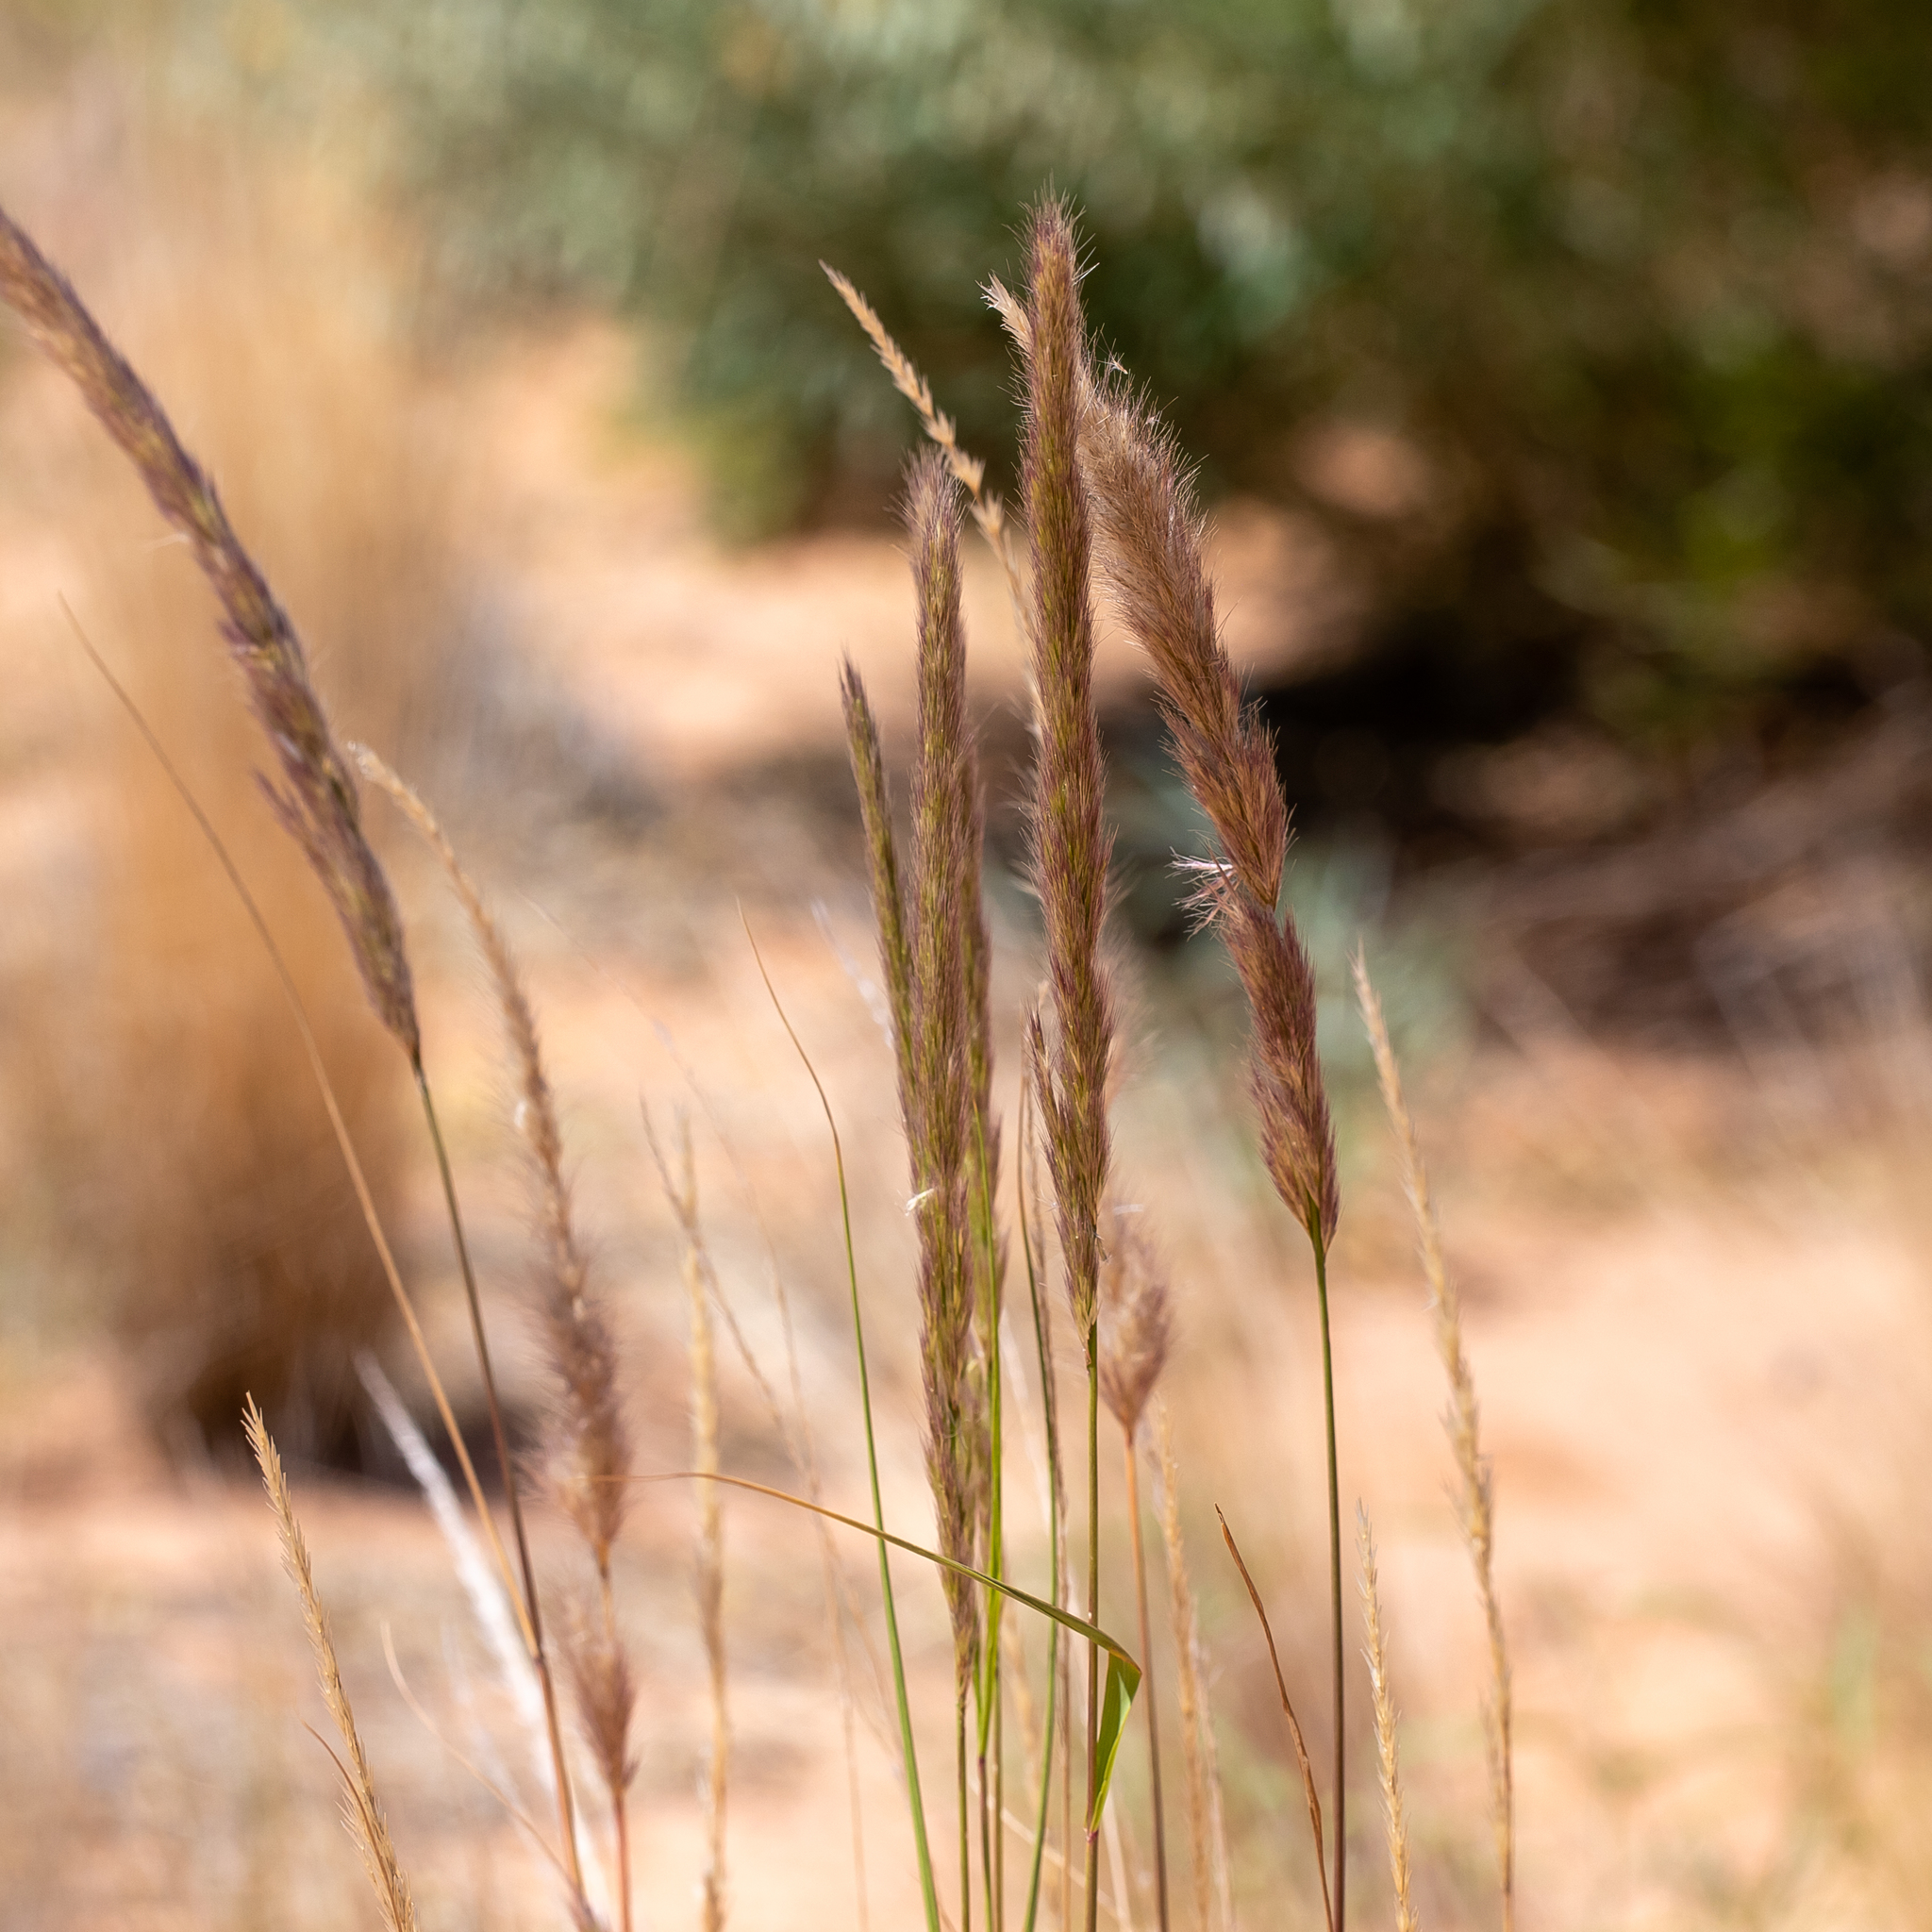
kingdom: Plantae
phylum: Tracheophyta
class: Liliopsida
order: Poales
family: Poaceae
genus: Triraphis
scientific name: Triraphis mollis
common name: Purple needlegrass
